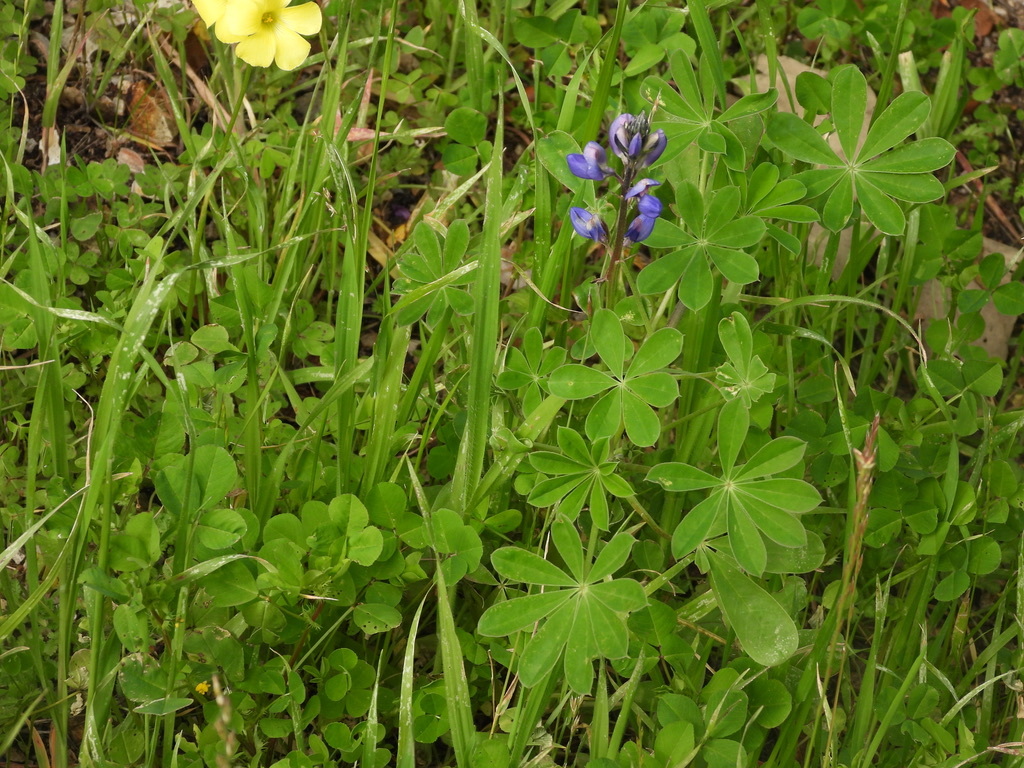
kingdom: Plantae
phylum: Tracheophyta
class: Magnoliopsida
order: Fabales
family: Fabaceae
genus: Lupinus
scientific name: Lupinus succulentus
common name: Arroyo lupine
